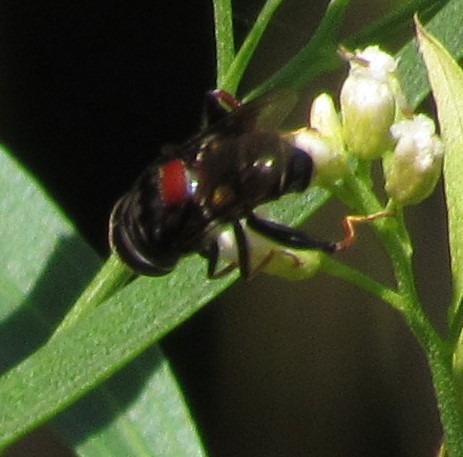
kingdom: Animalia
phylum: Arthropoda
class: Insecta
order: Diptera
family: Syrphidae
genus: Palpada
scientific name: Palpada rufoscutellata
